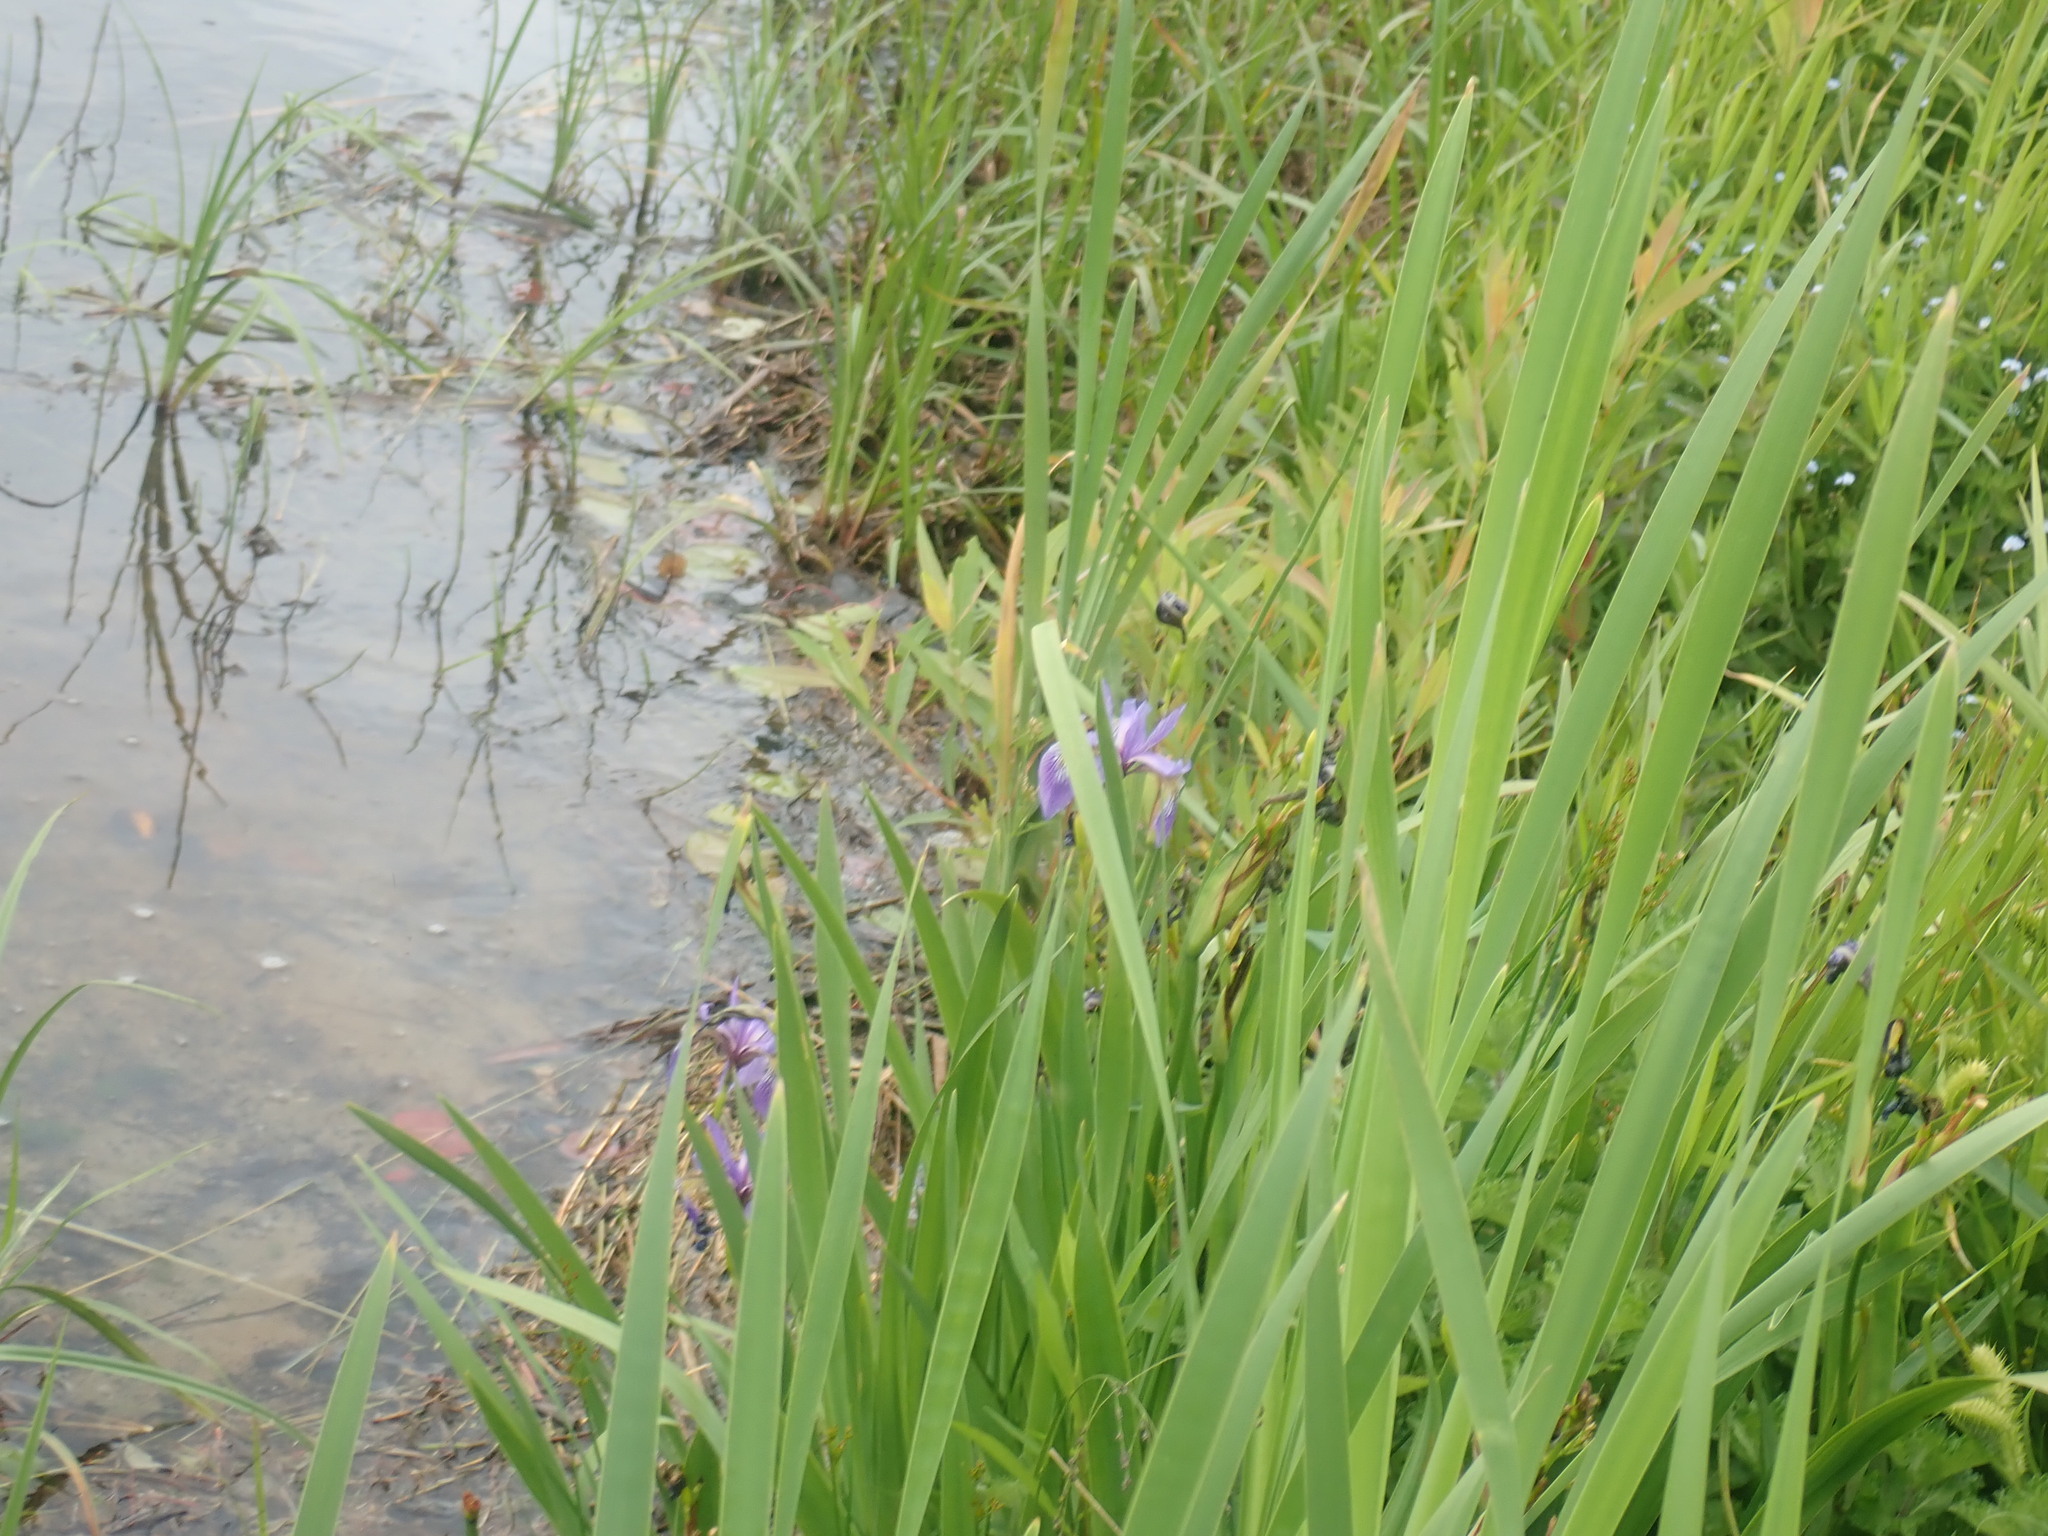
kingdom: Plantae
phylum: Tracheophyta
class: Liliopsida
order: Asparagales
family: Iridaceae
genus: Iris
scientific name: Iris versicolor
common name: Purple iris
